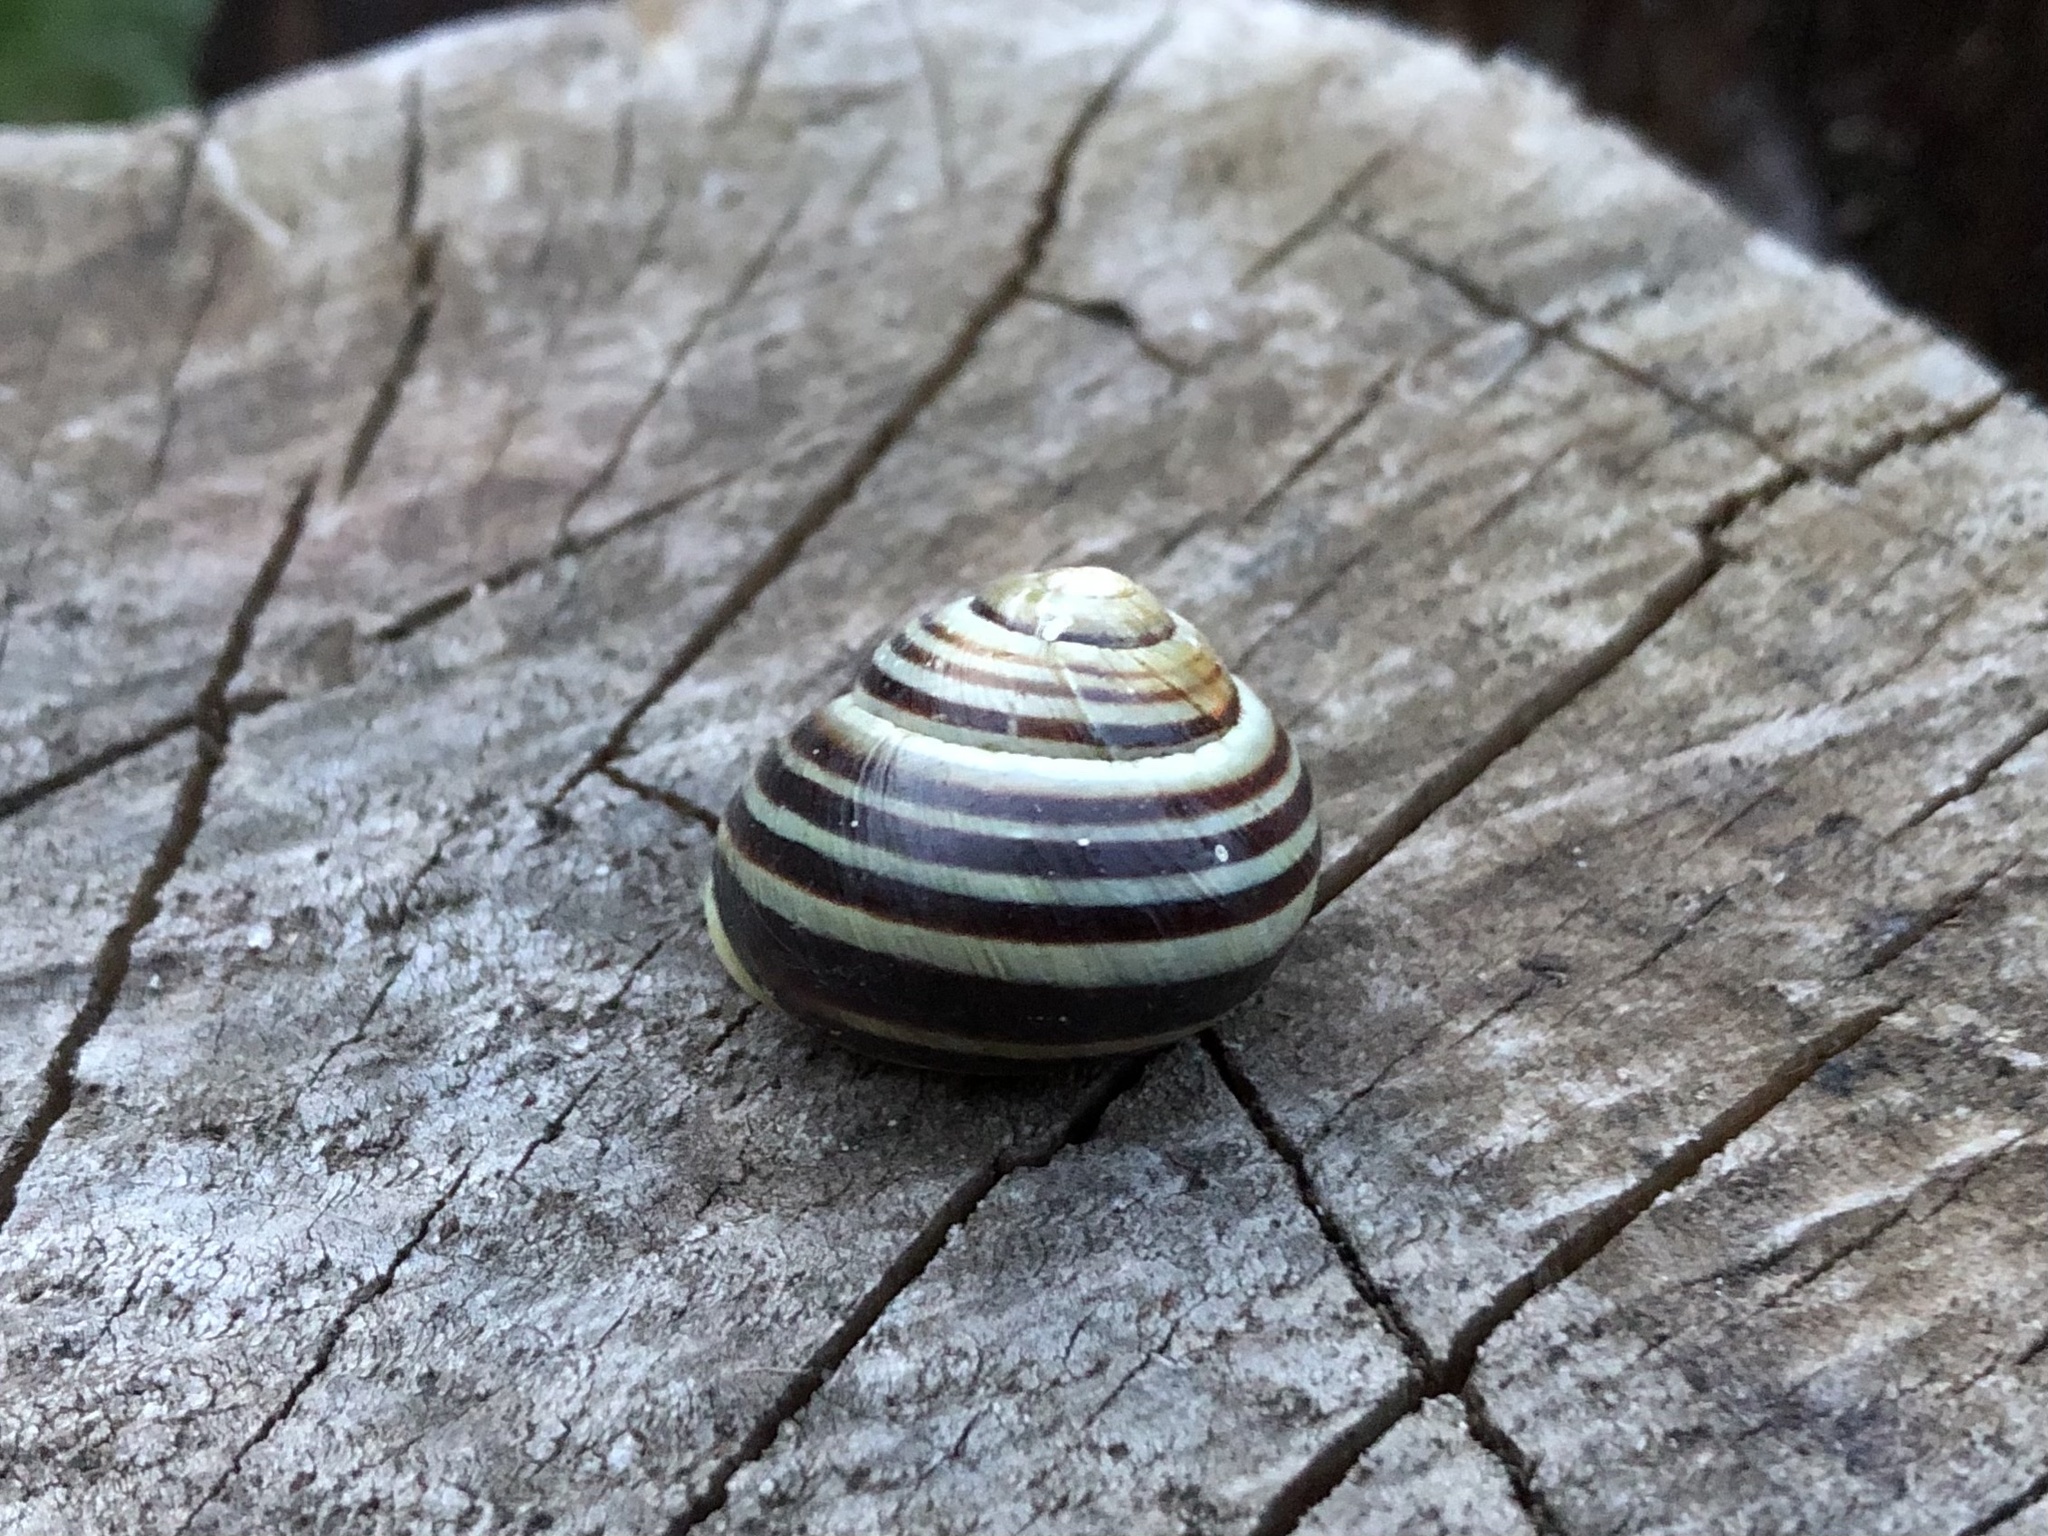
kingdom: Animalia
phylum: Mollusca
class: Gastropoda
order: Stylommatophora
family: Helicidae
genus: Cepaea
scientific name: Cepaea hortensis
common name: White-lip gardensnail
